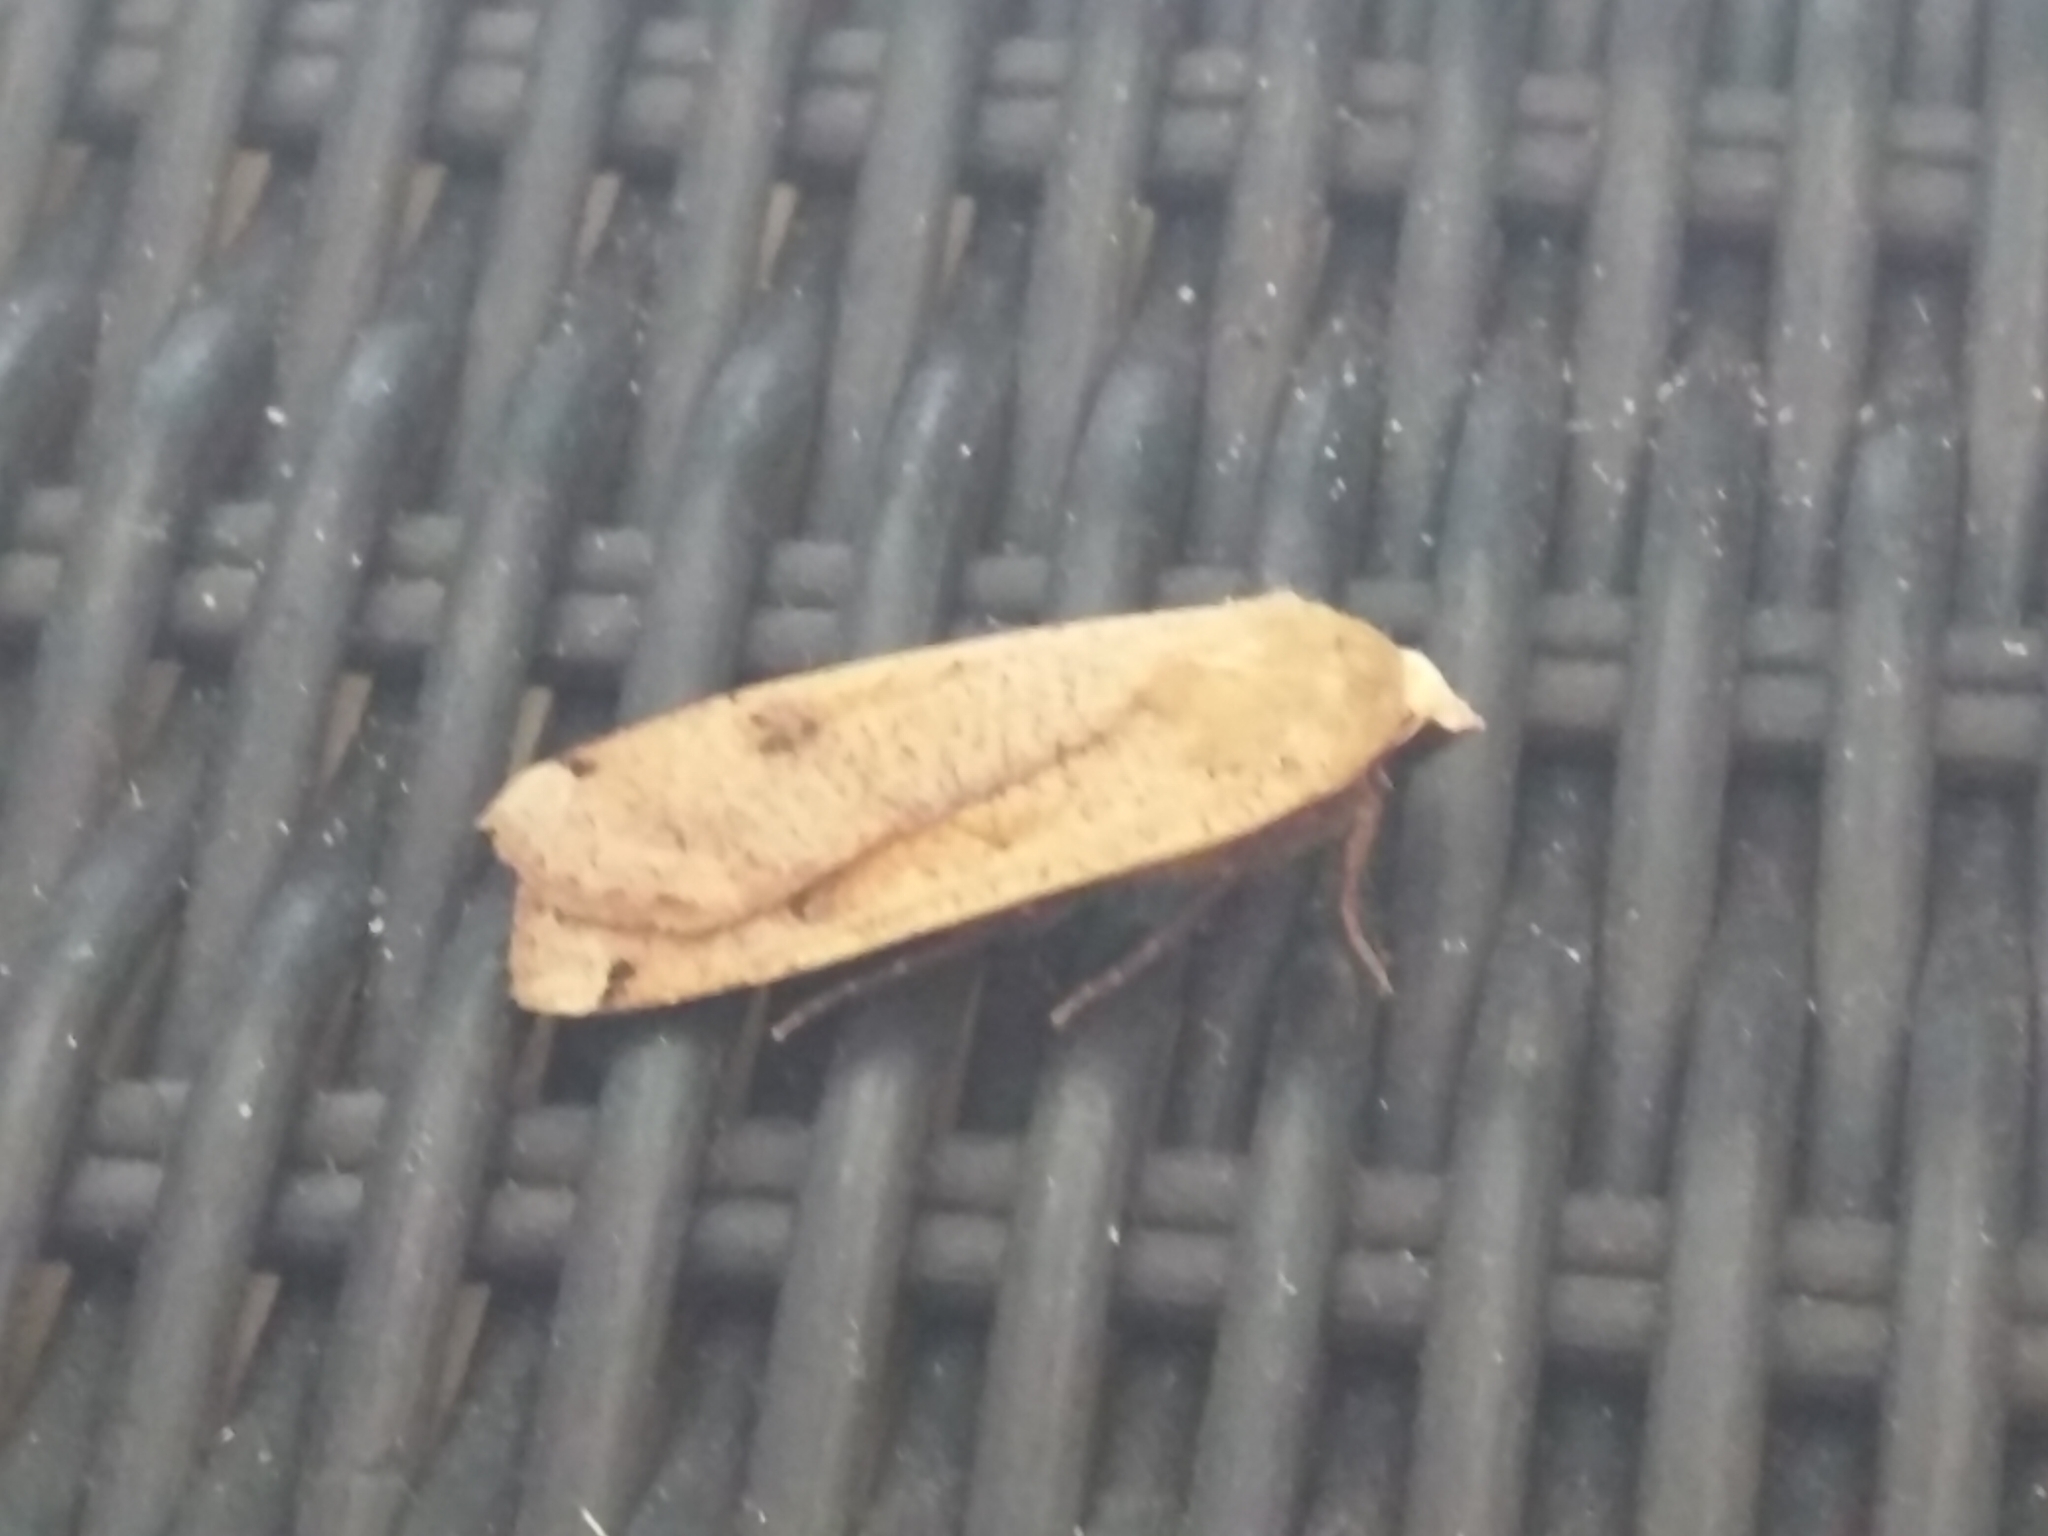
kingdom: Animalia
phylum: Arthropoda
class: Insecta
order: Lepidoptera
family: Noctuidae
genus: Noctua
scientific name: Noctua pronuba
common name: Large yellow underwing
